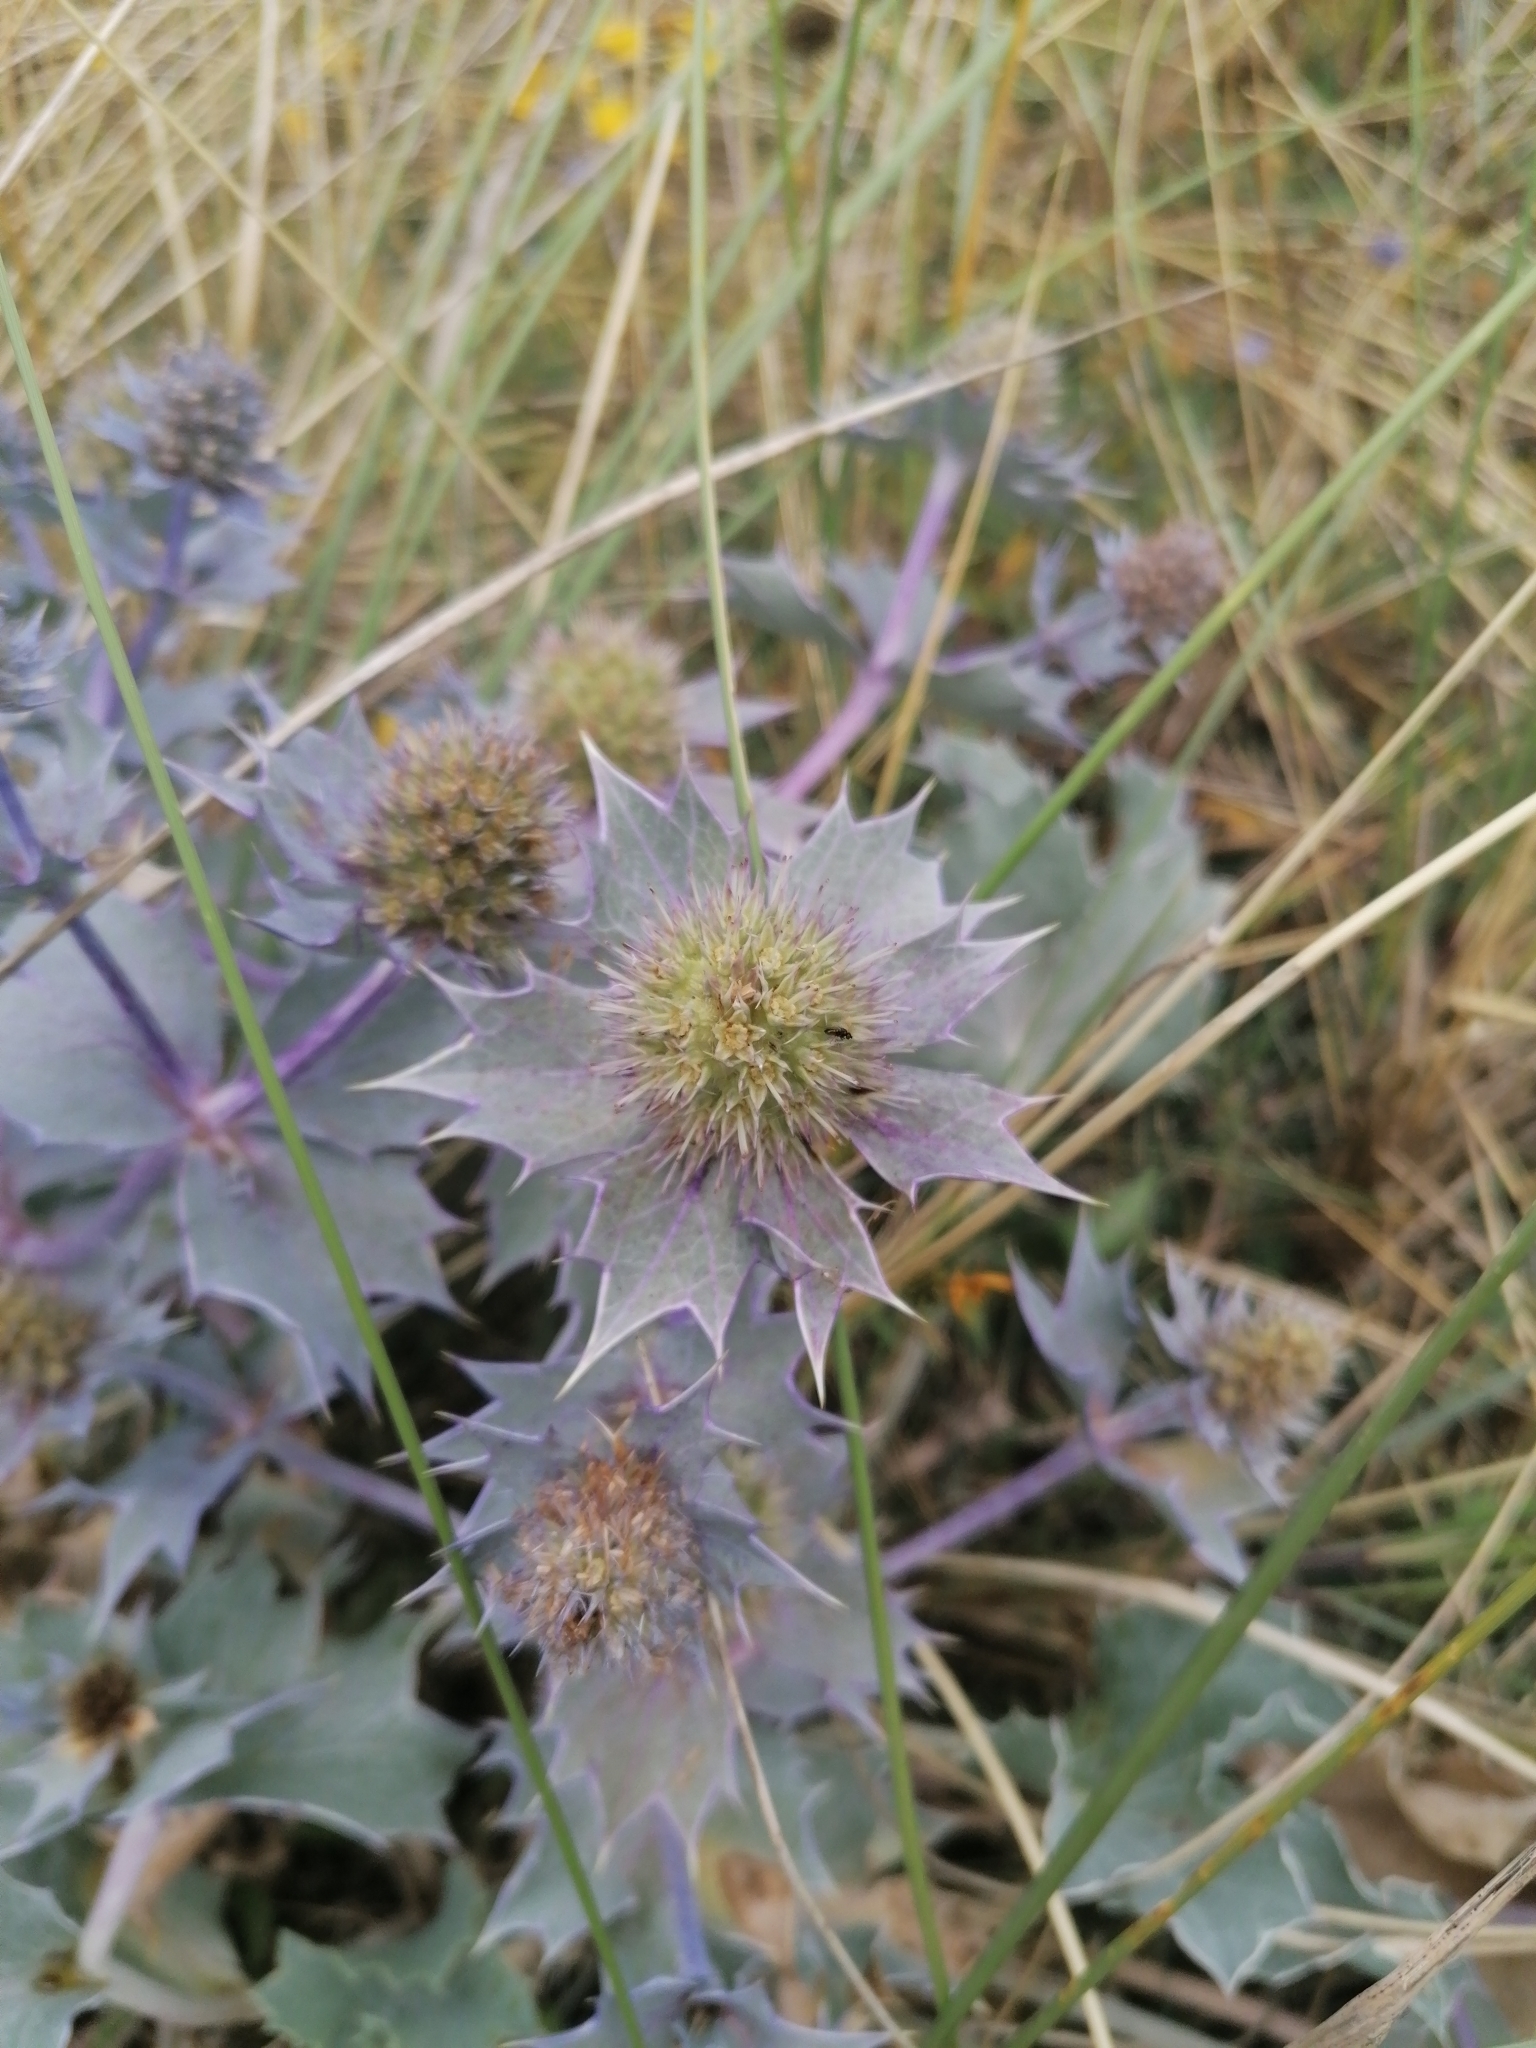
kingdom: Plantae
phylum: Tracheophyta
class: Magnoliopsida
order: Apiales
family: Apiaceae
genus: Eryngium
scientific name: Eryngium maritimum
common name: Sea-holly
